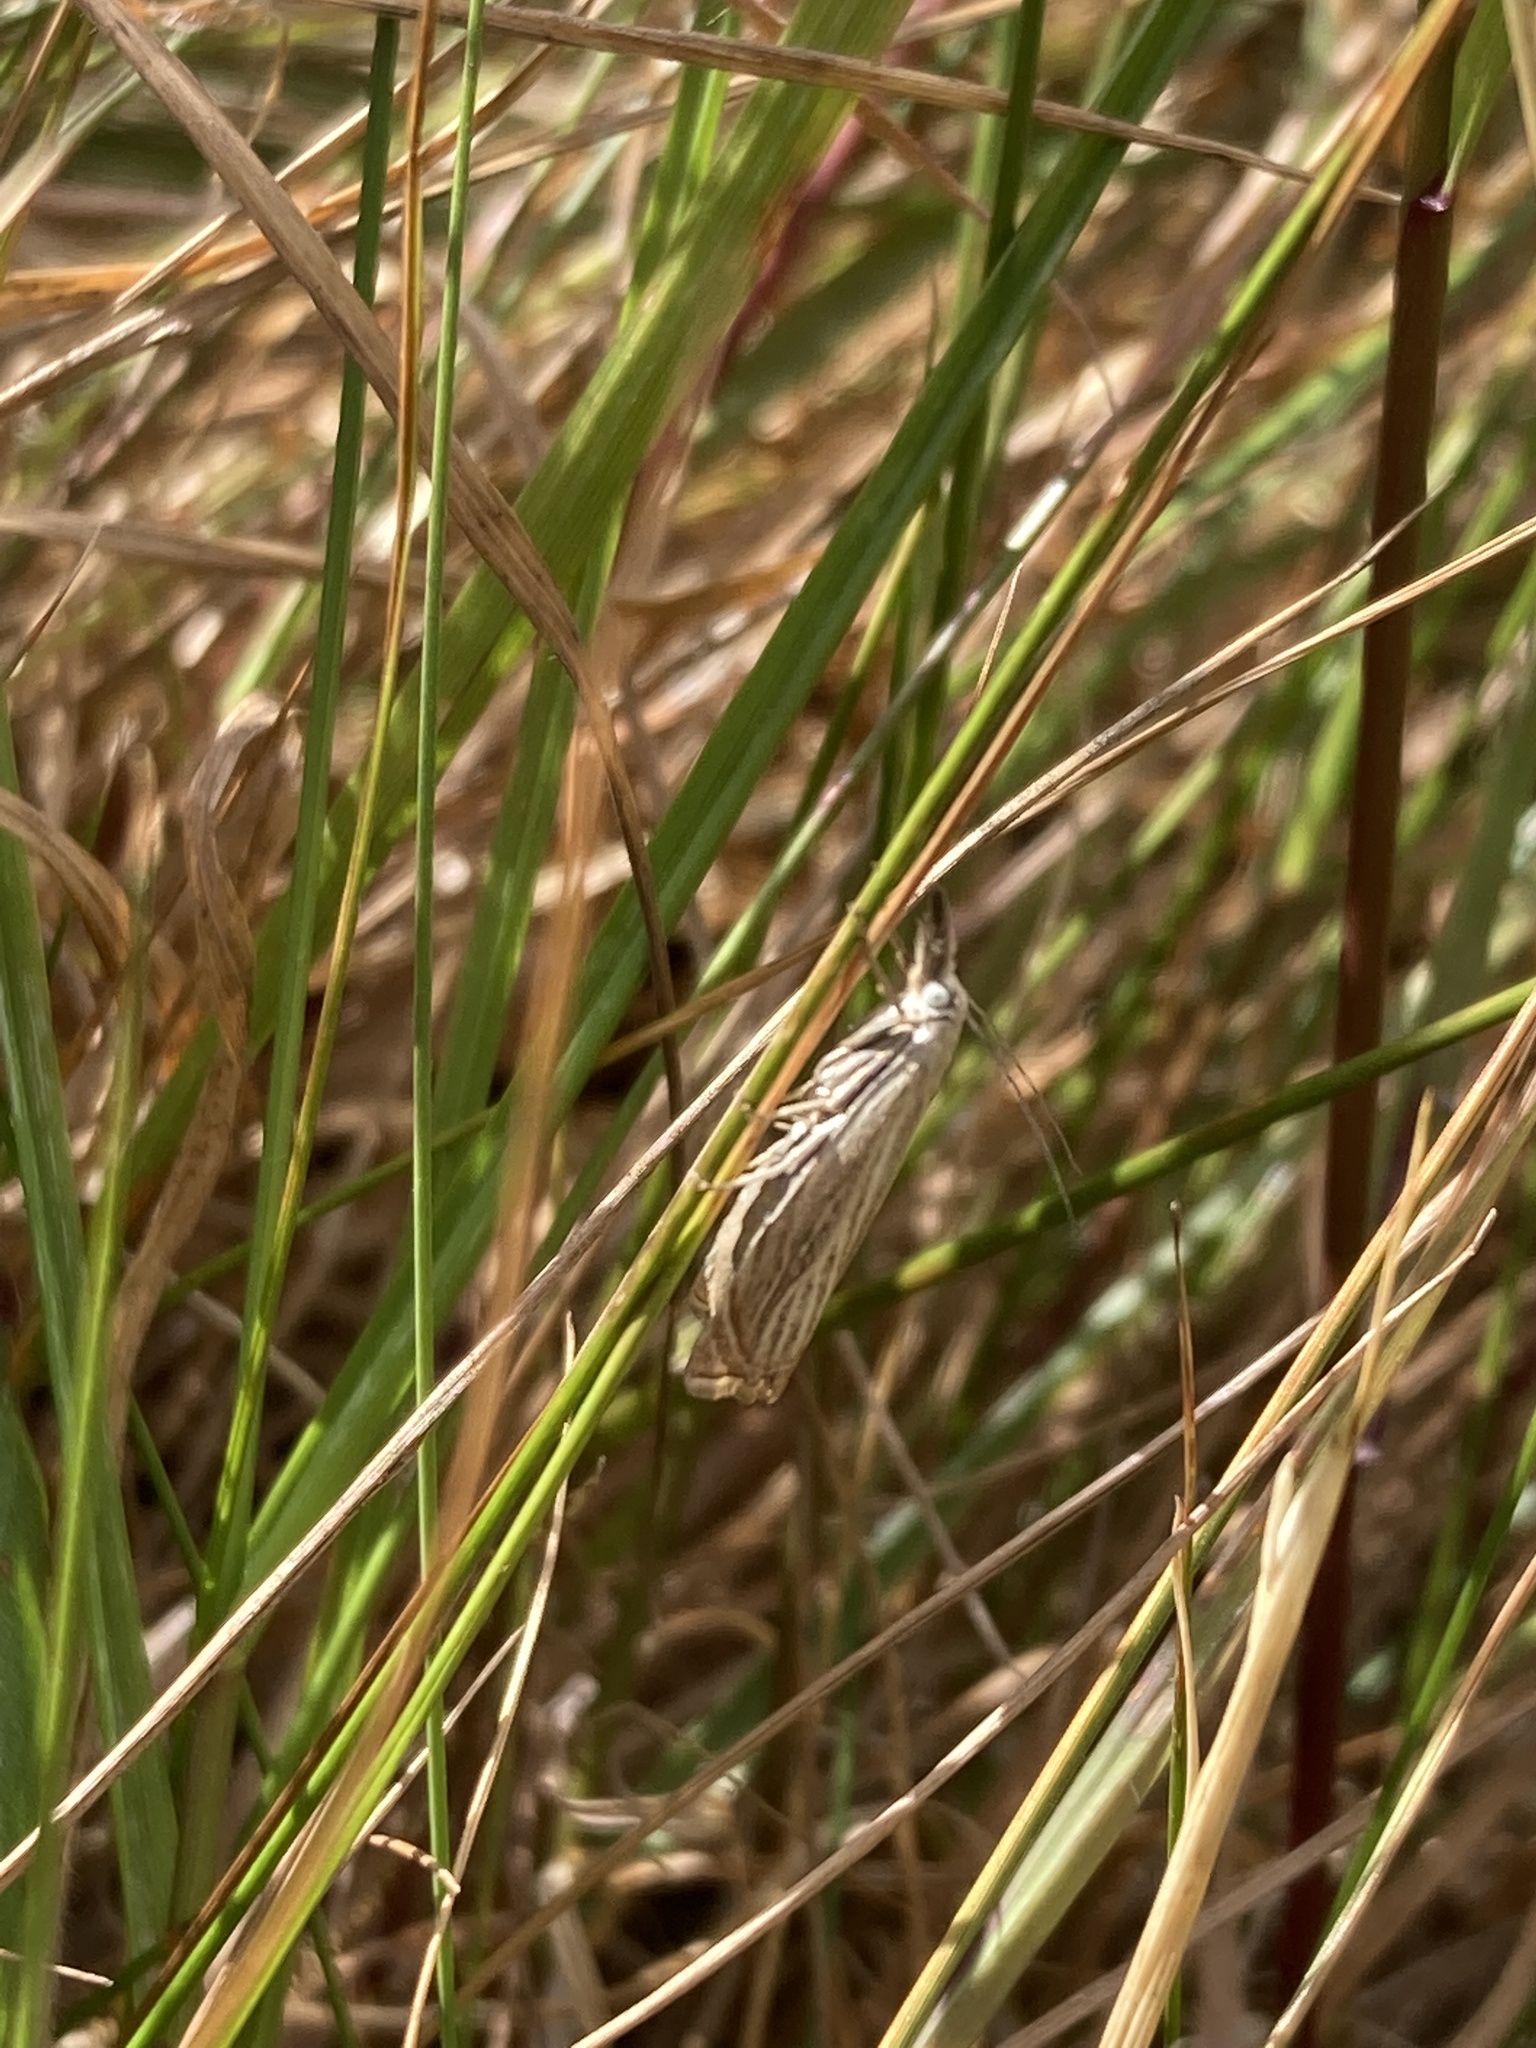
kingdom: Animalia
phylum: Arthropoda
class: Insecta
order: Lepidoptera
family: Crambidae
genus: Chrysoteuchia
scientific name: Chrysoteuchia culmella
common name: Garden grass-veneer
